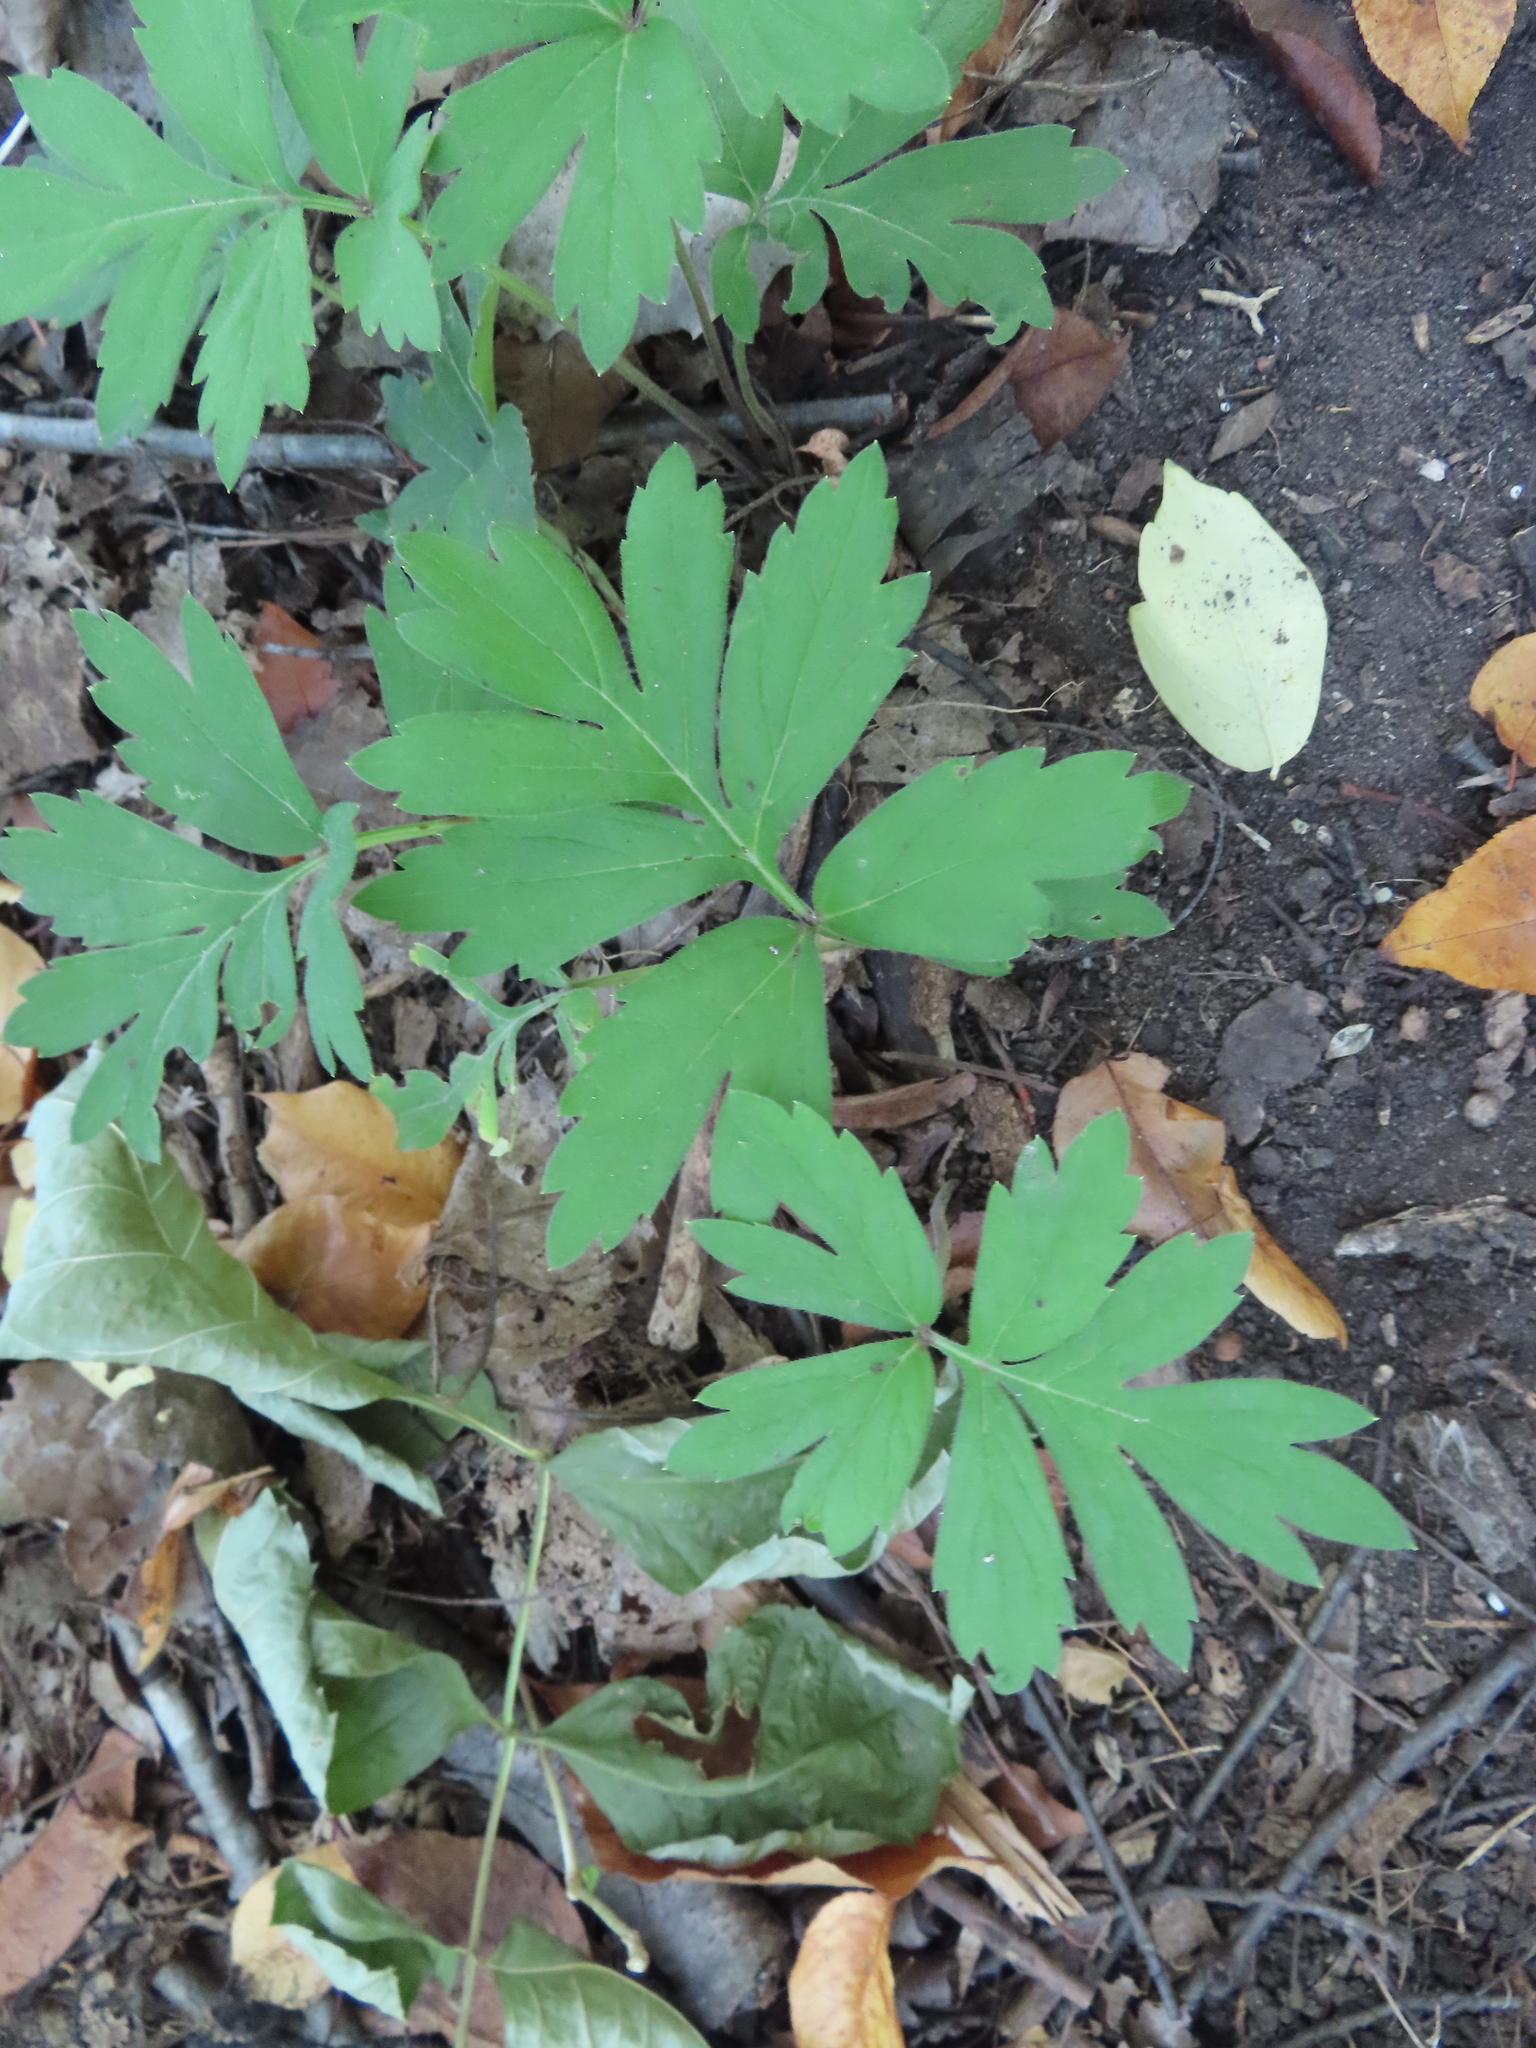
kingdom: Plantae
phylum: Tracheophyta
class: Magnoliopsida
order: Boraginales
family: Hydrophyllaceae
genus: Hydrophyllum
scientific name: Hydrophyllum virginianum
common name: Virginia waterleaf
